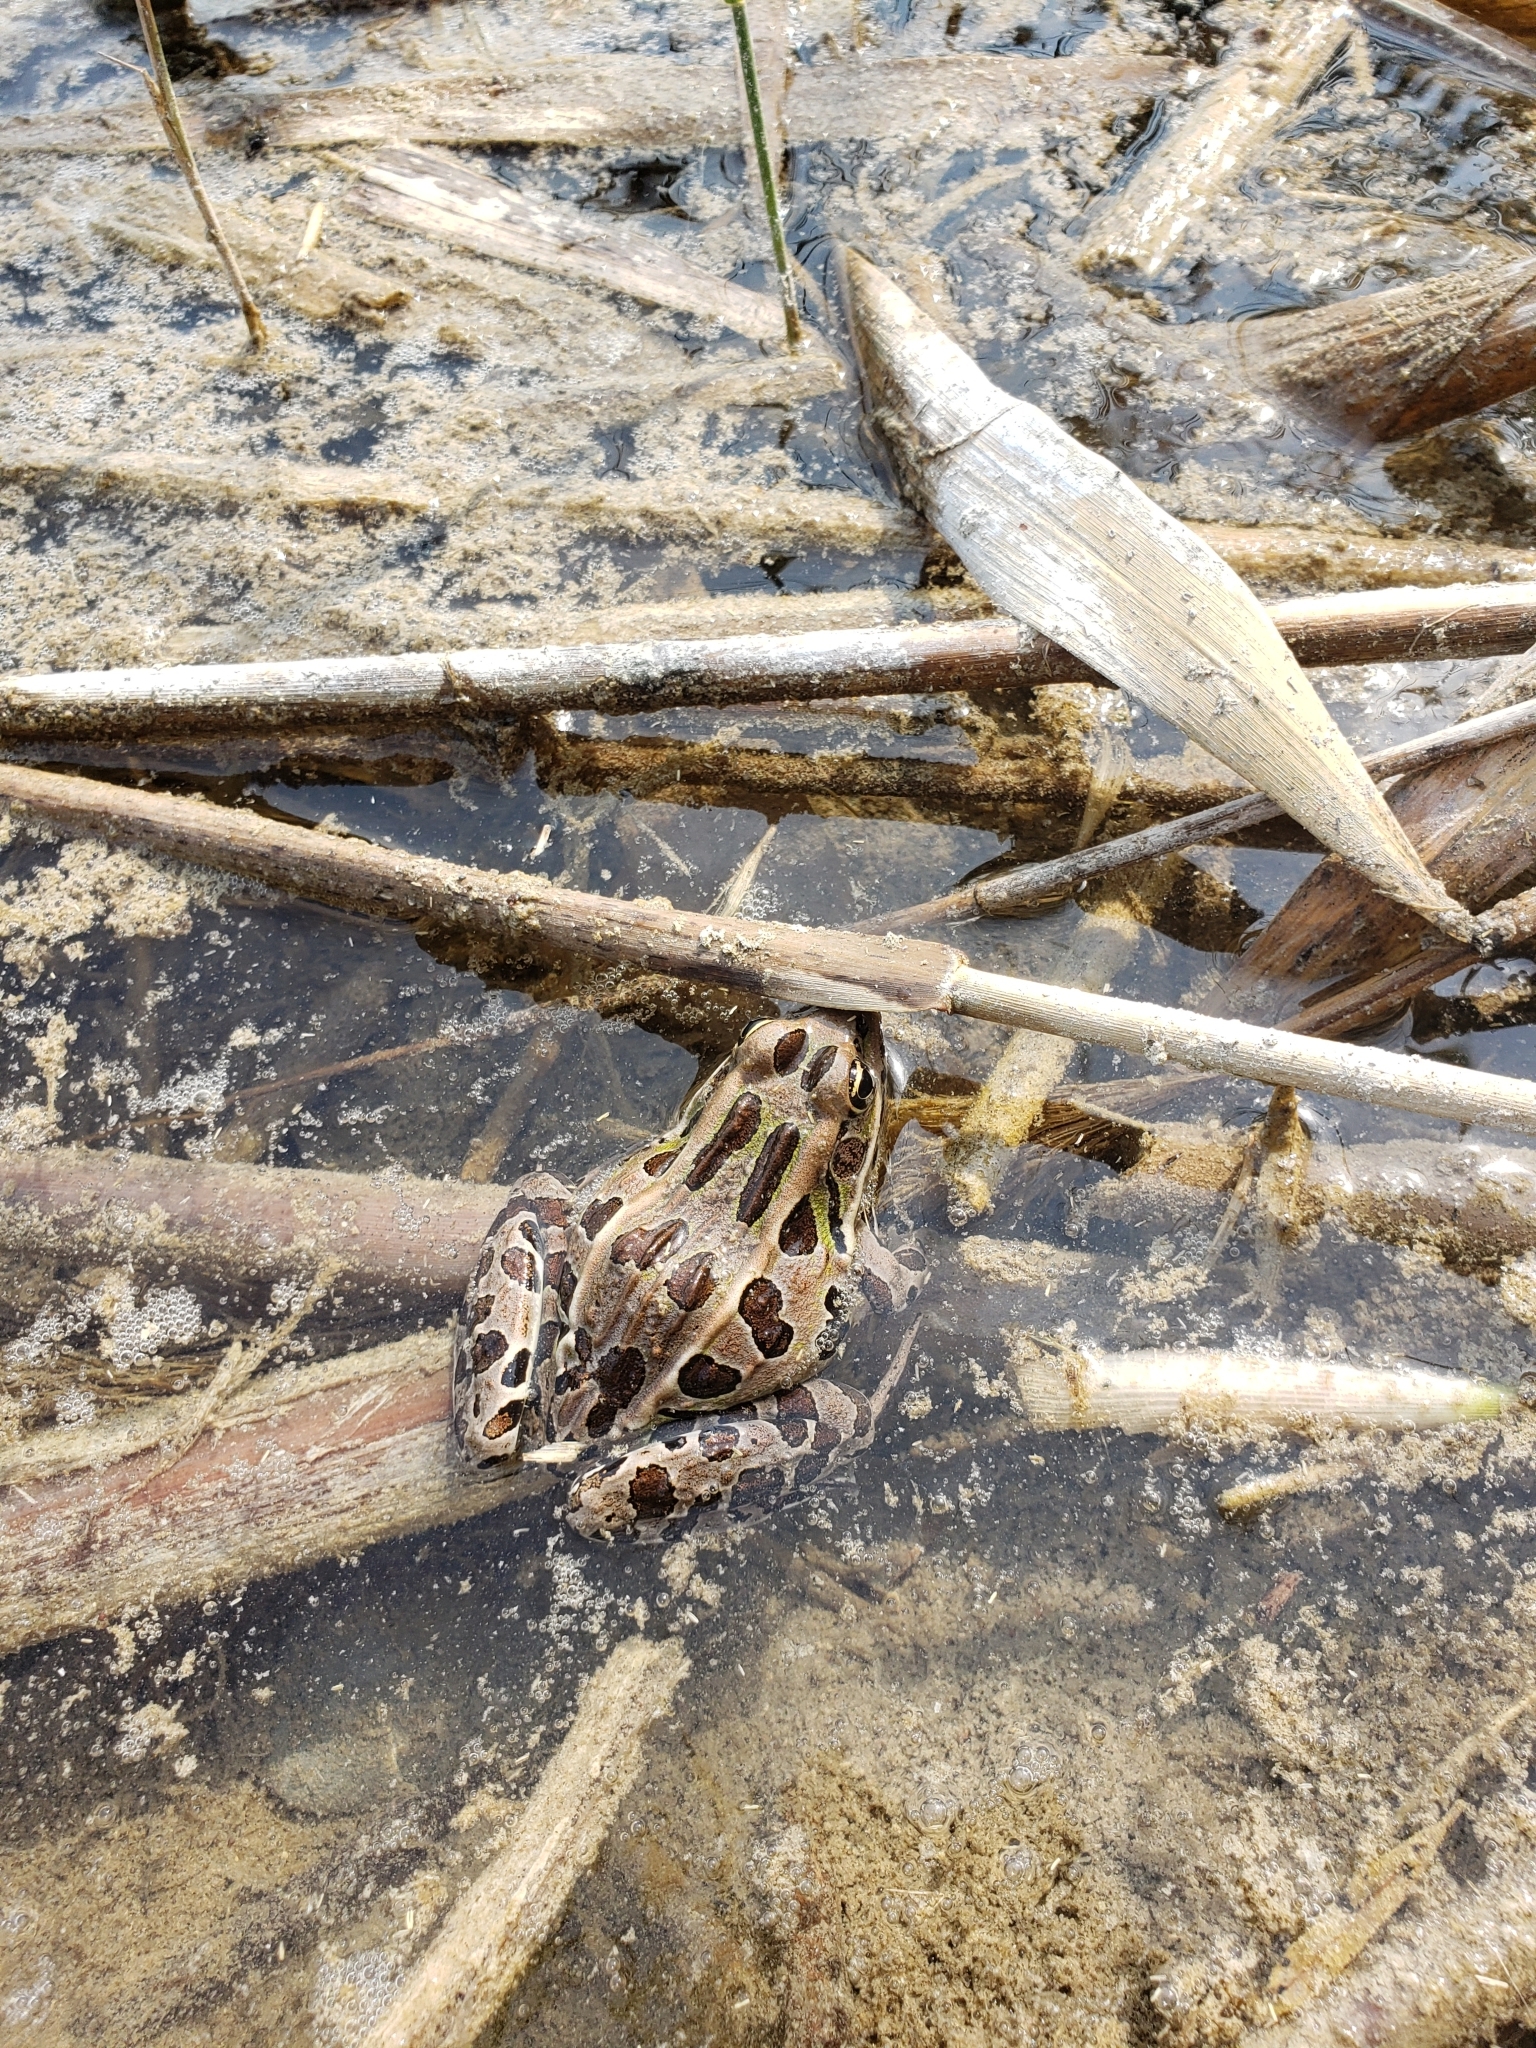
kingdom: Animalia
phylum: Chordata
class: Amphibia
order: Anura
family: Ranidae
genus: Lithobates
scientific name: Lithobates pipiens
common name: Northern leopard frog
